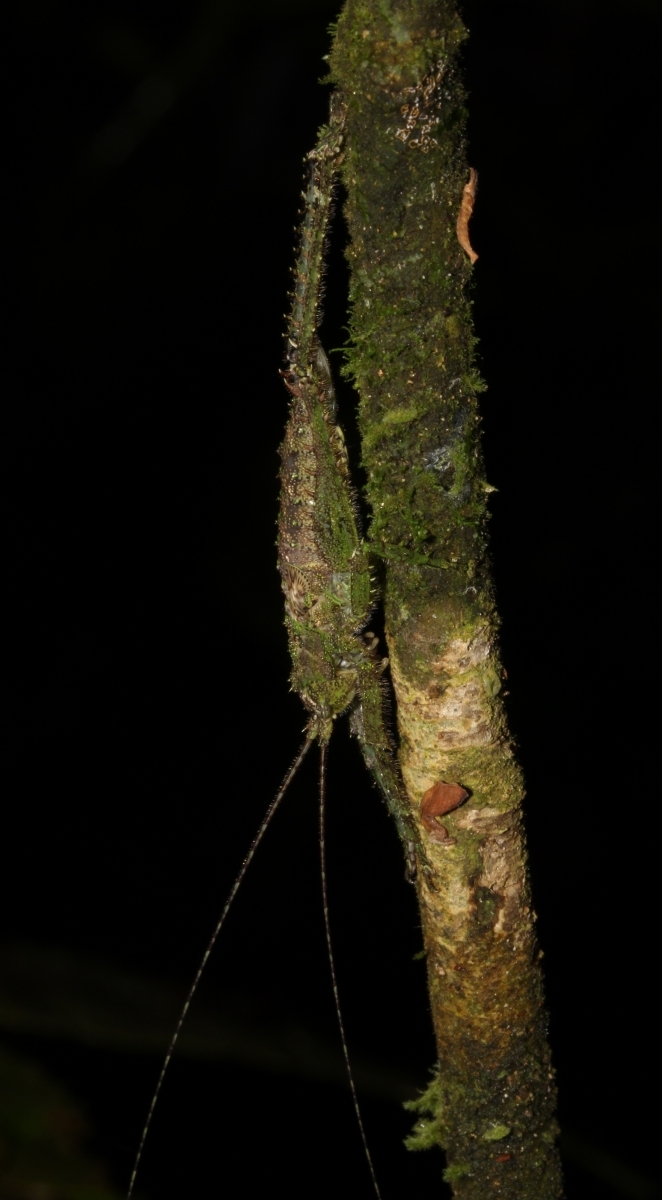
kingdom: Animalia
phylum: Arthropoda
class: Insecta
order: Orthoptera
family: Tettigoniidae
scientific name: Tettigoniidae
